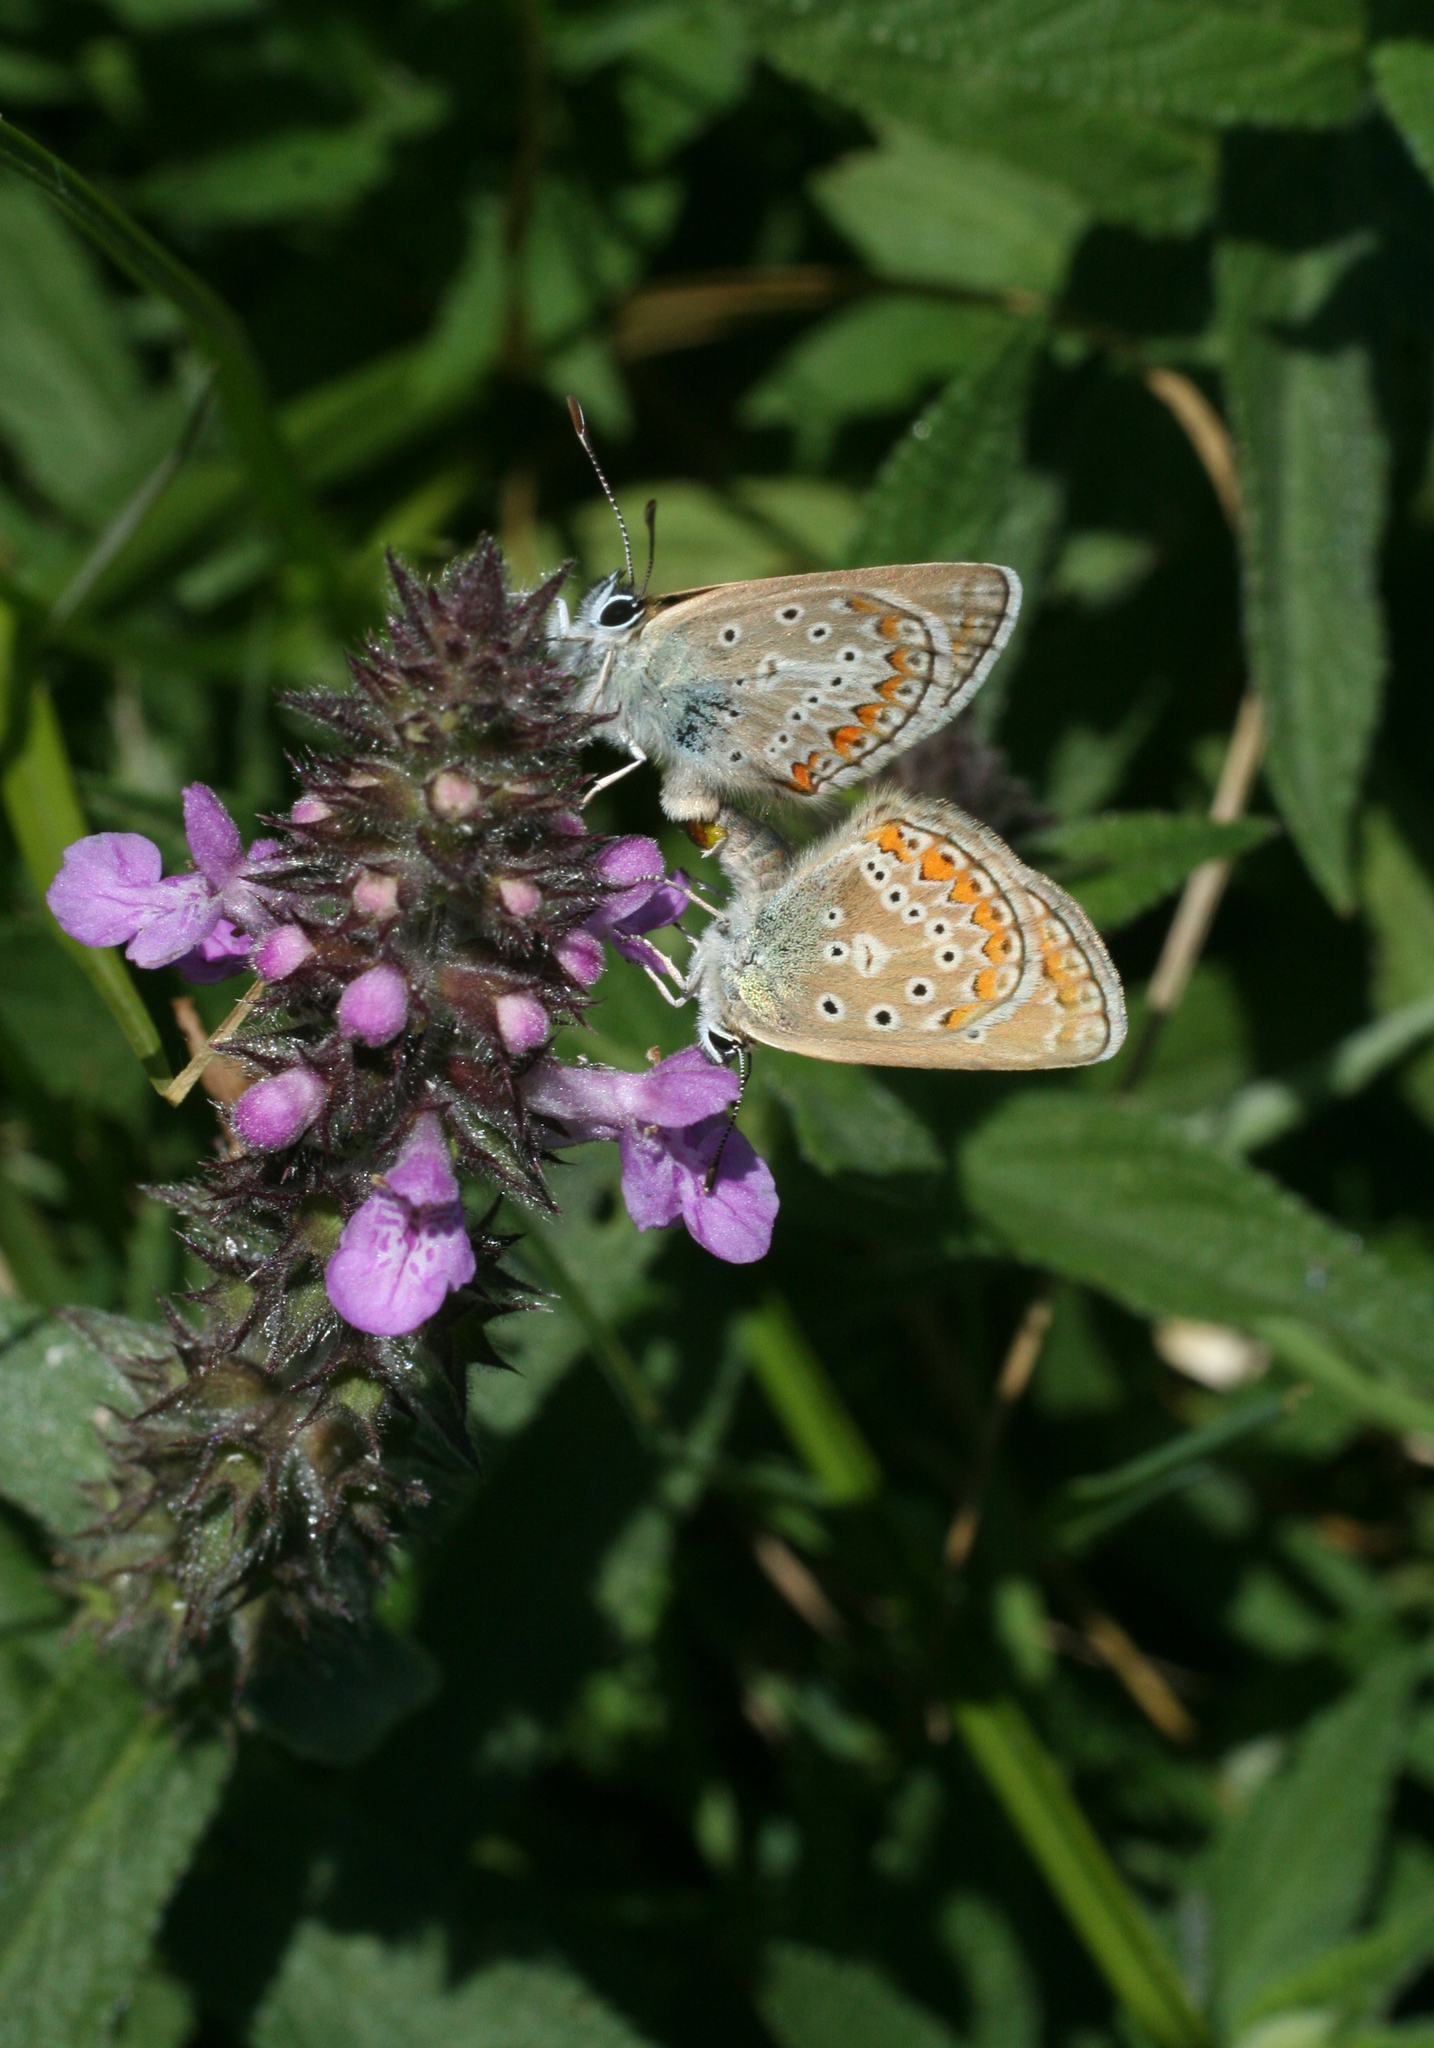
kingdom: Plantae
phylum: Tracheophyta
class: Magnoliopsida
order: Lamiales
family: Lamiaceae
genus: Stachys
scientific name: Stachys palustris
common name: Marsh woundwort
